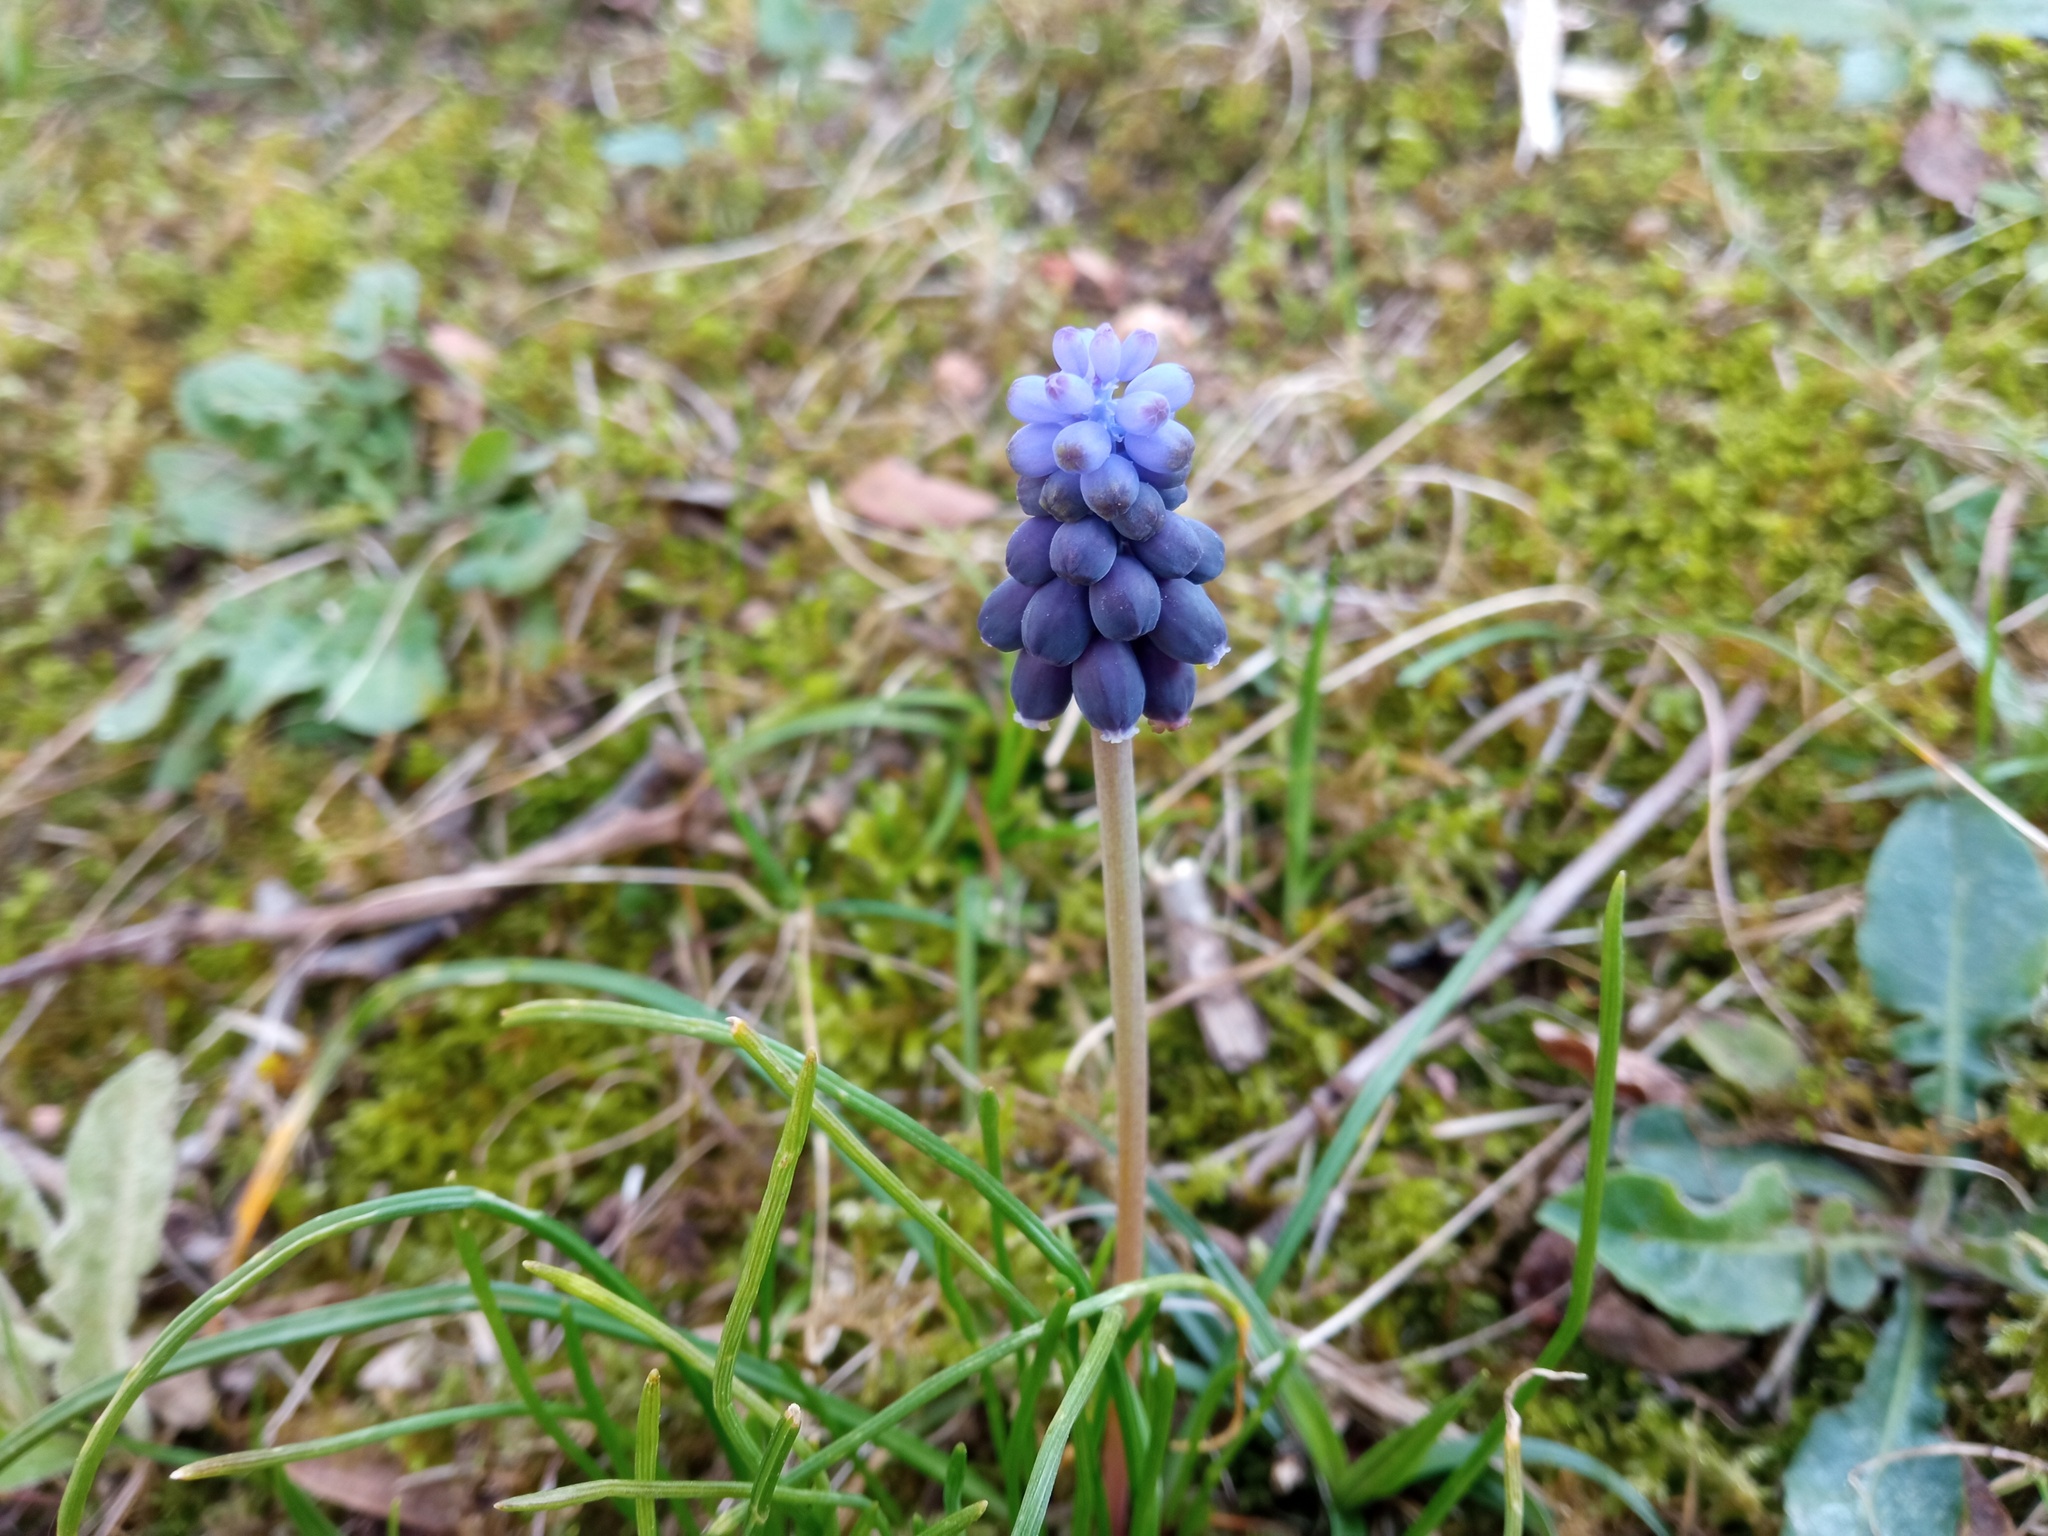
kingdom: Plantae
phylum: Tracheophyta
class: Liliopsida
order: Asparagales
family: Asparagaceae
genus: Muscari
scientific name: Muscari neglectum
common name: Grape-hyacinth
